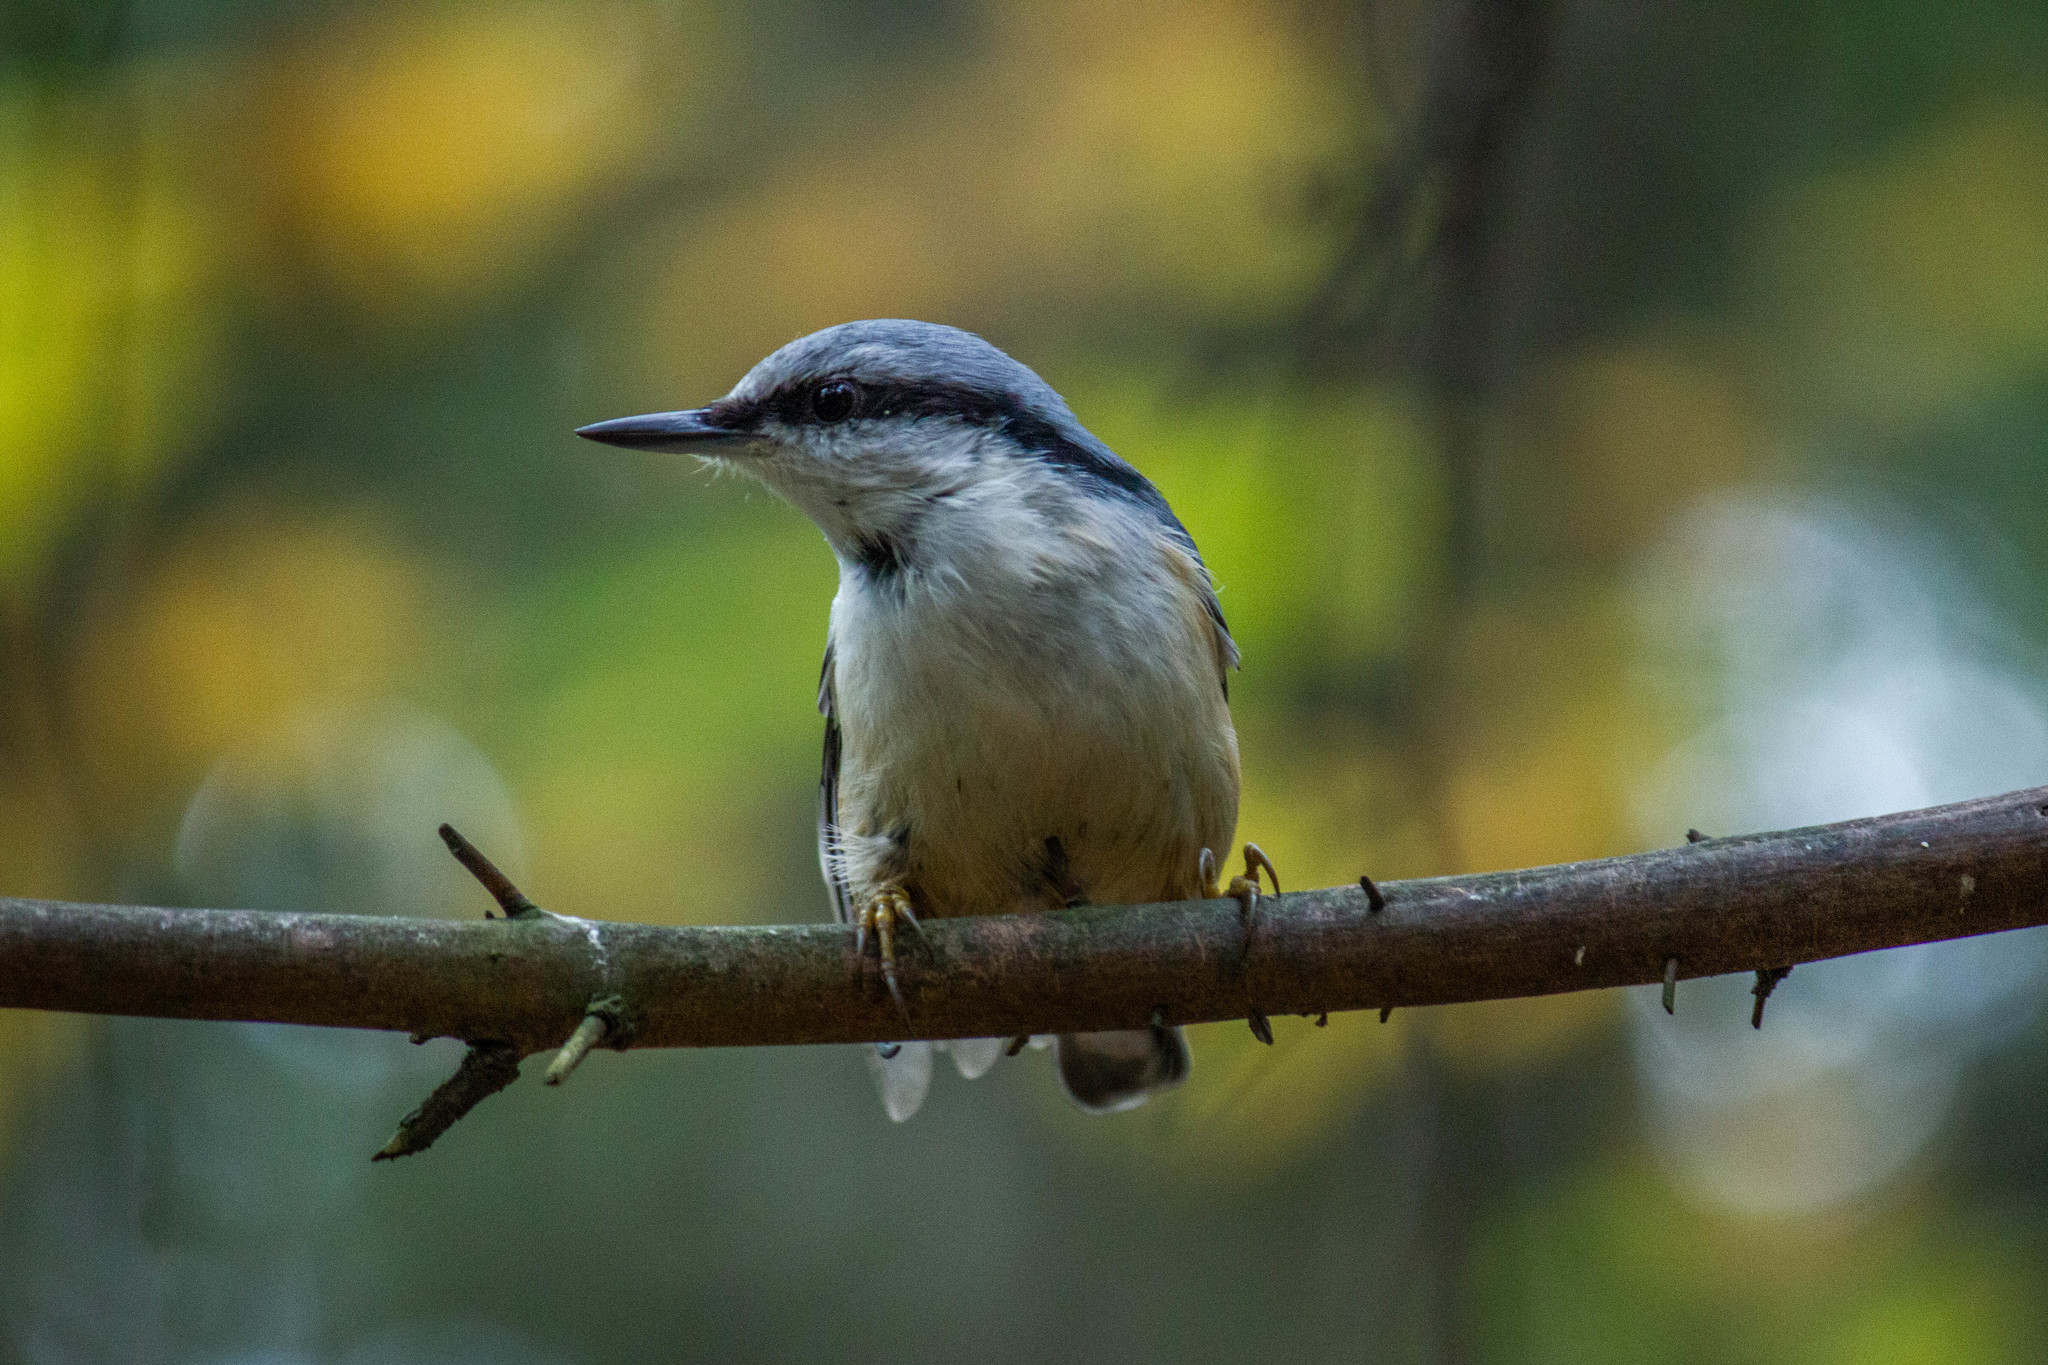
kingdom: Animalia
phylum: Chordata
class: Aves
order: Passeriformes
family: Sittidae
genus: Sitta
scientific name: Sitta europaea
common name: Eurasian nuthatch
